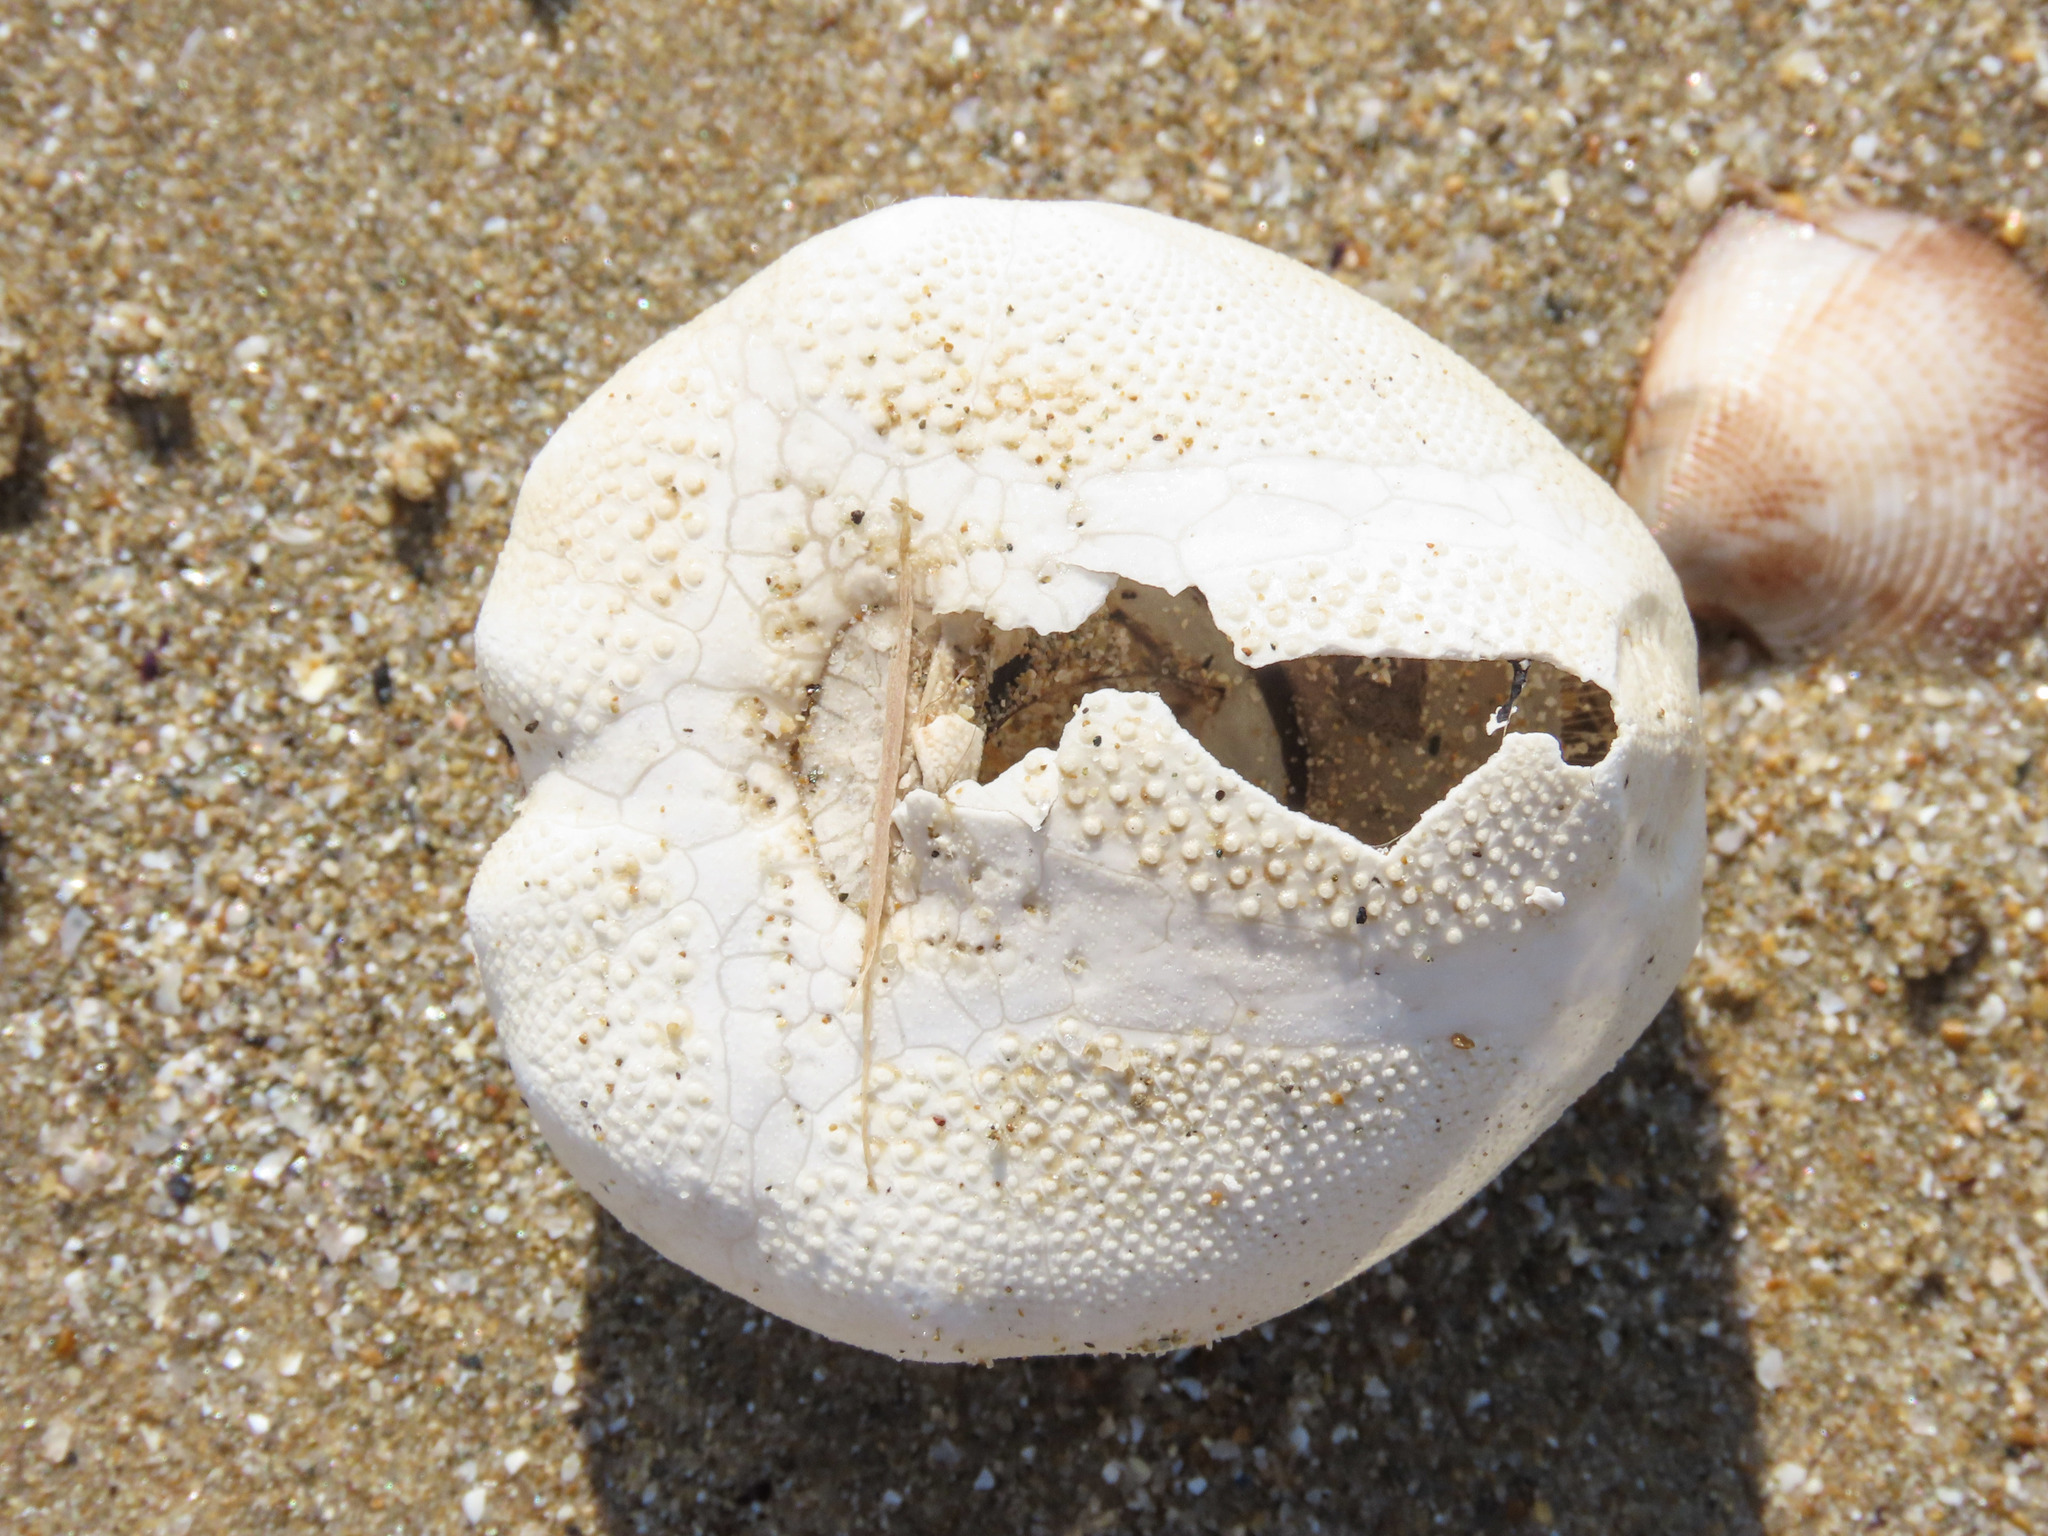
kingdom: Animalia
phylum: Echinodermata
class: Echinoidea
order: Spatangoida
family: Loveniidae
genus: Echinocardium
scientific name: Echinocardium cordatum
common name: Heart-urchin
